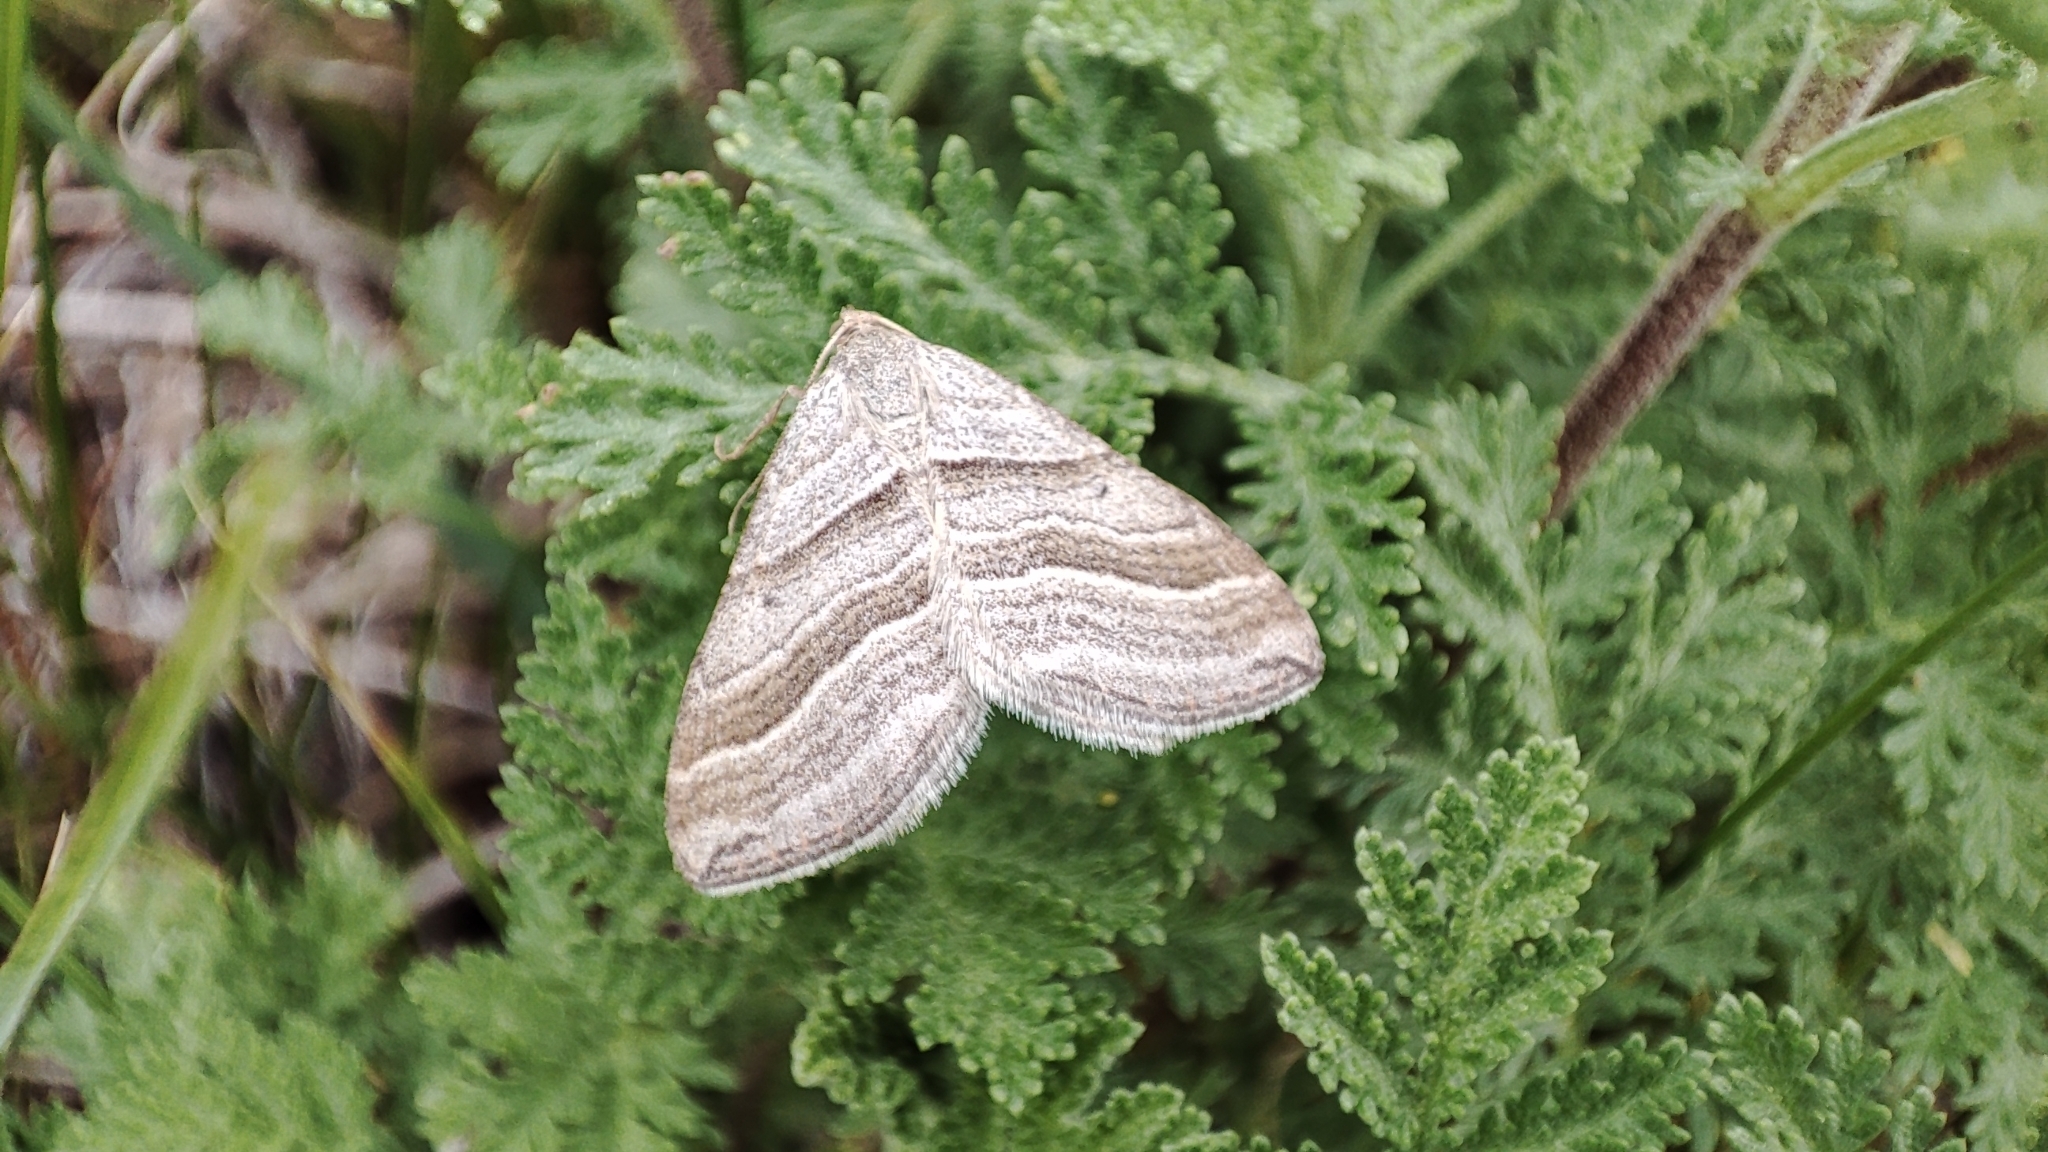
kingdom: Animalia
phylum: Arthropoda
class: Insecta
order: Lepidoptera
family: Geometridae
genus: Phibalapteryx
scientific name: Phibalapteryx virgata
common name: Oblique striped
